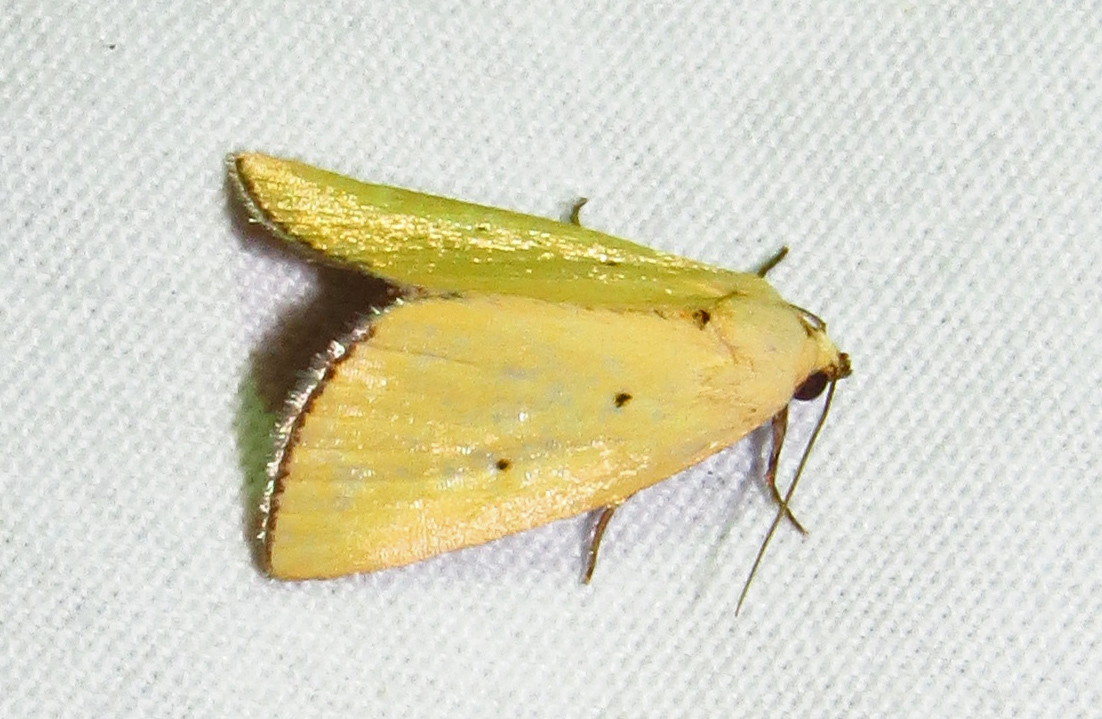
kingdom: Animalia
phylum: Arthropoda
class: Insecta
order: Lepidoptera
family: Noctuidae
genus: Marimatha
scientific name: Marimatha nigrofimbria
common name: Black-bordered lemon moth
